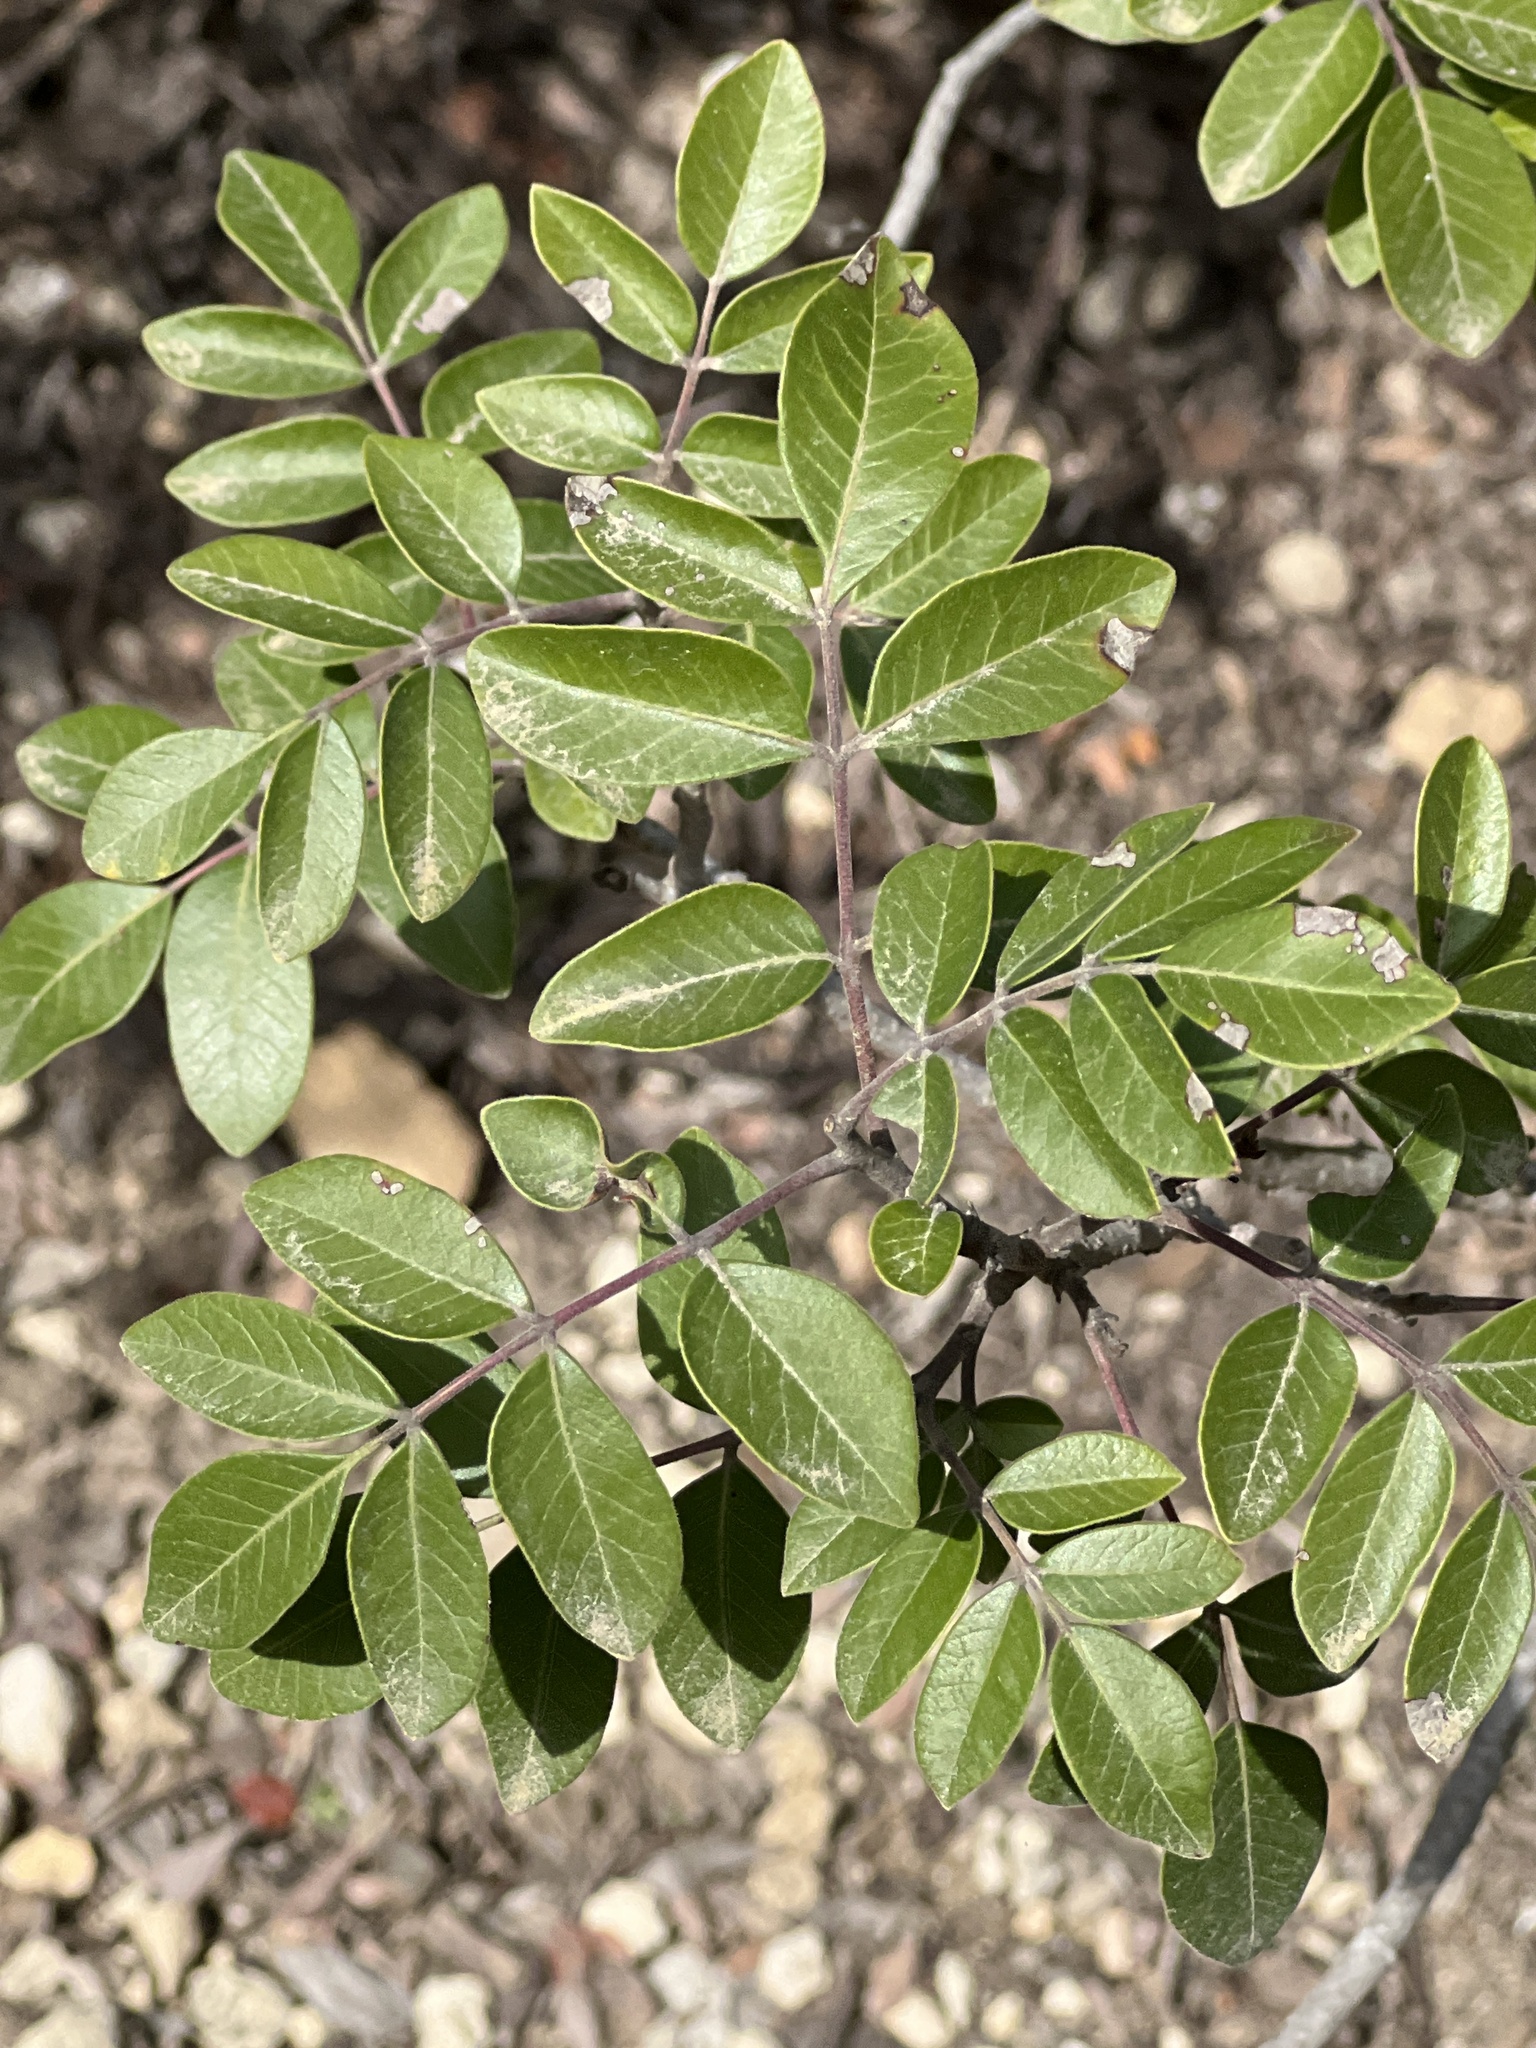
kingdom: Plantae
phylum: Tracheophyta
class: Magnoliopsida
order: Sapindales
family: Anacardiaceae
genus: Rhus
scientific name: Rhus virens
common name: Evergreen sumac
